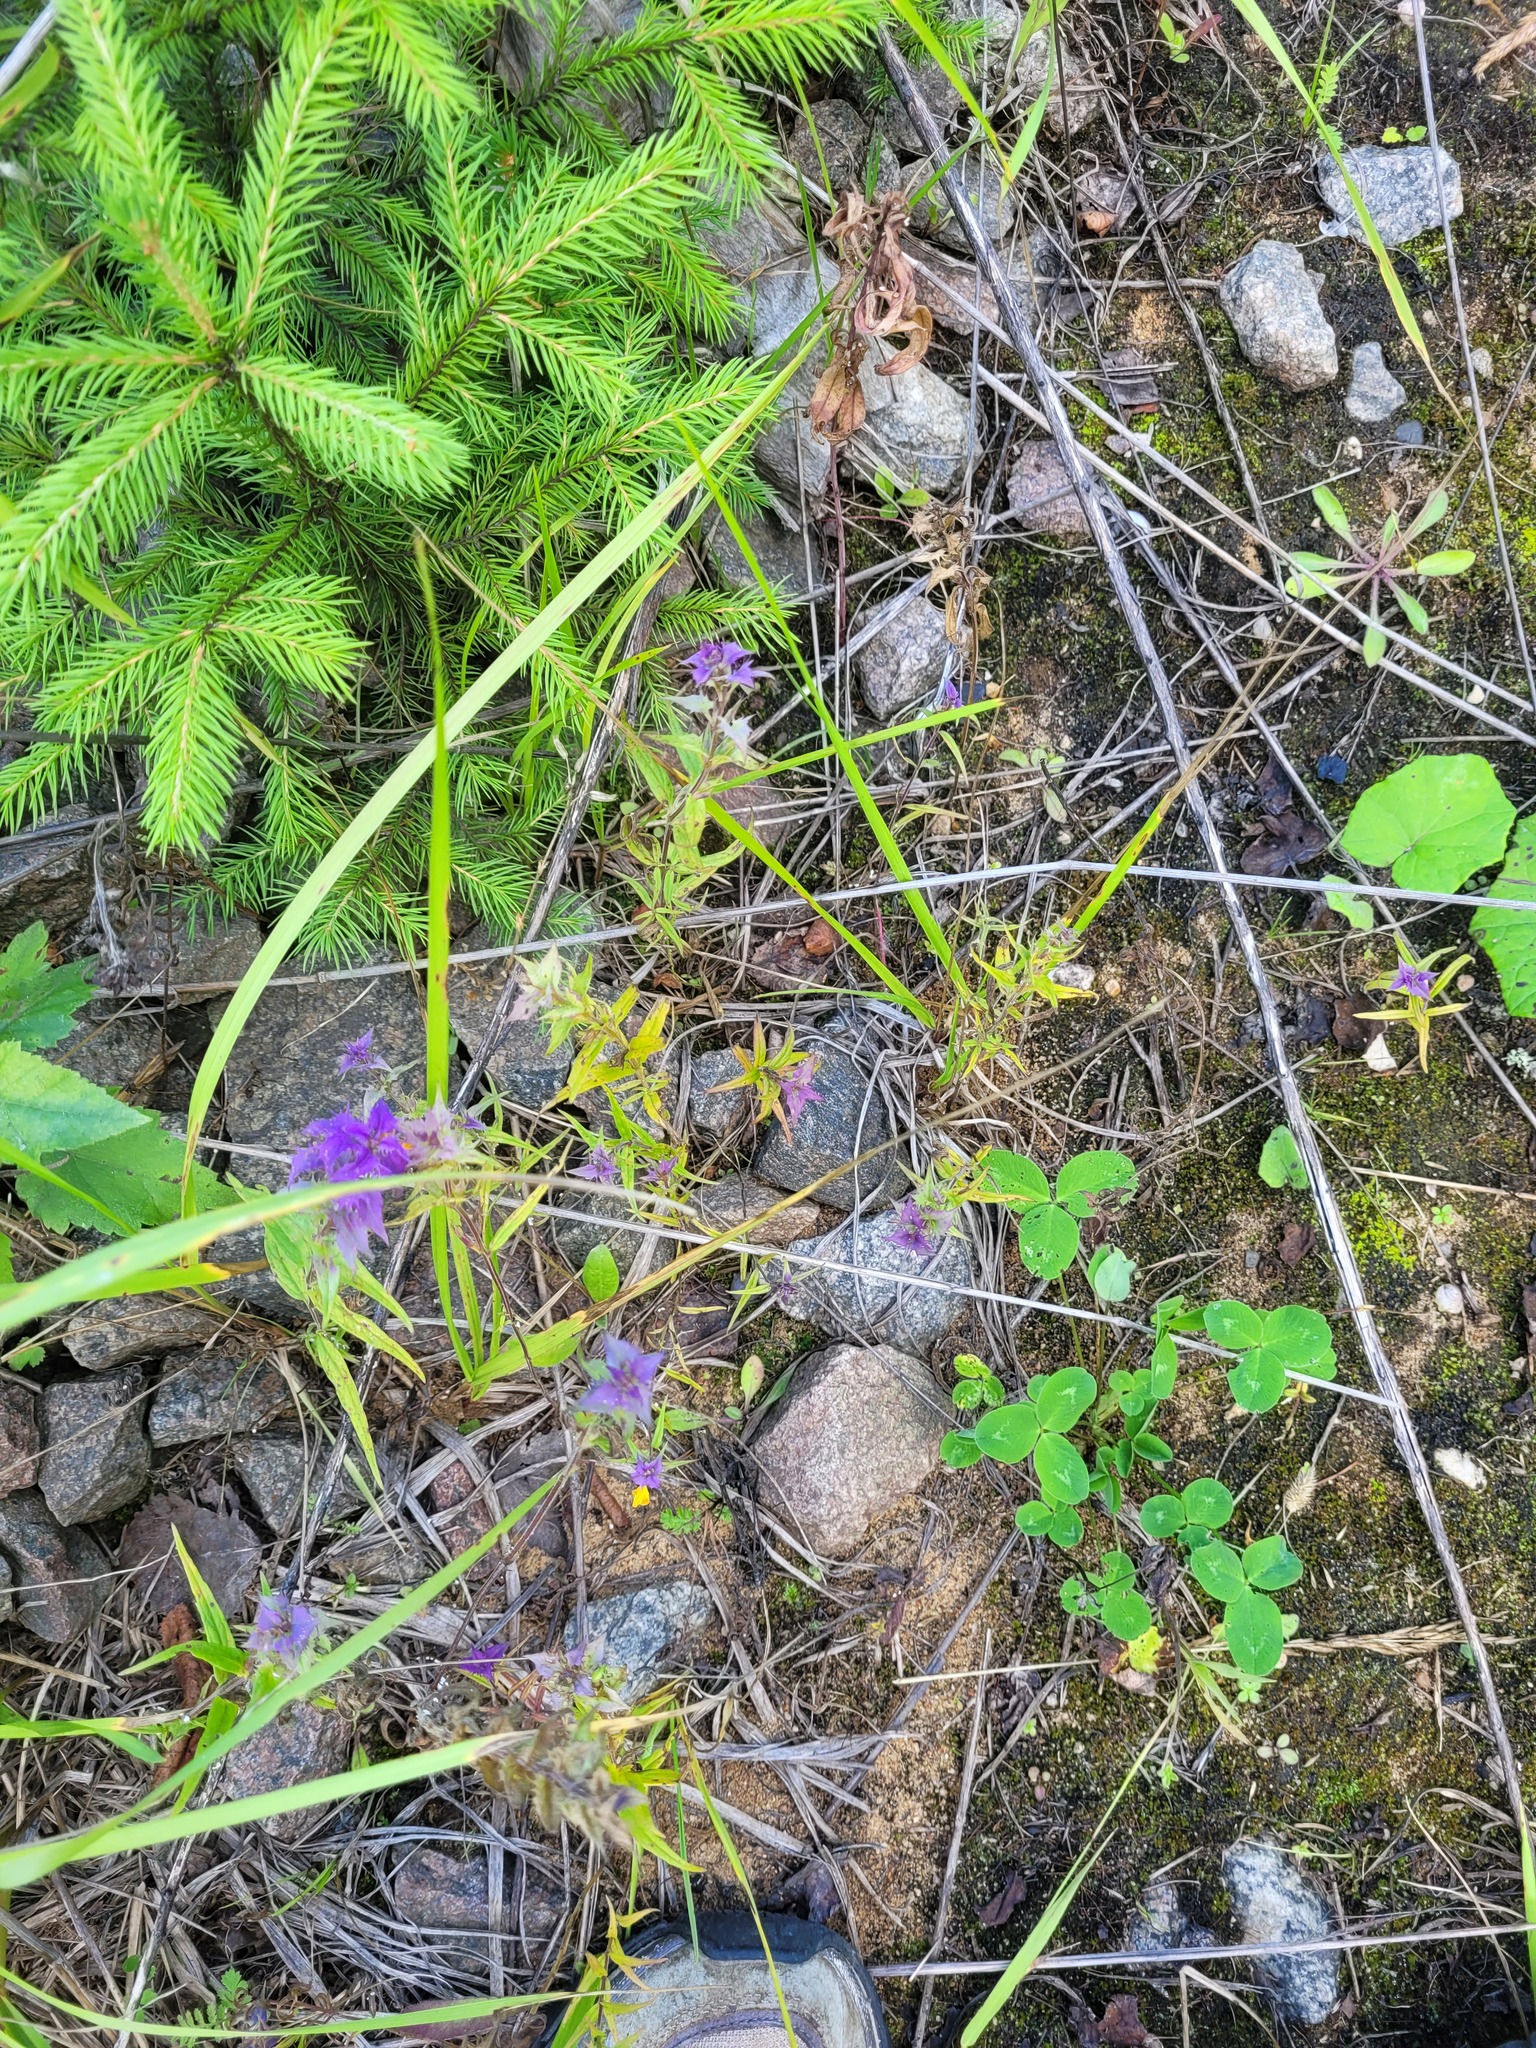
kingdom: Plantae
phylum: Tracheophyta
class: Magnoliopsida
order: Lamiales
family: Orobanchaceae
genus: Melampyrum
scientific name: Melampyrum nemorosum
